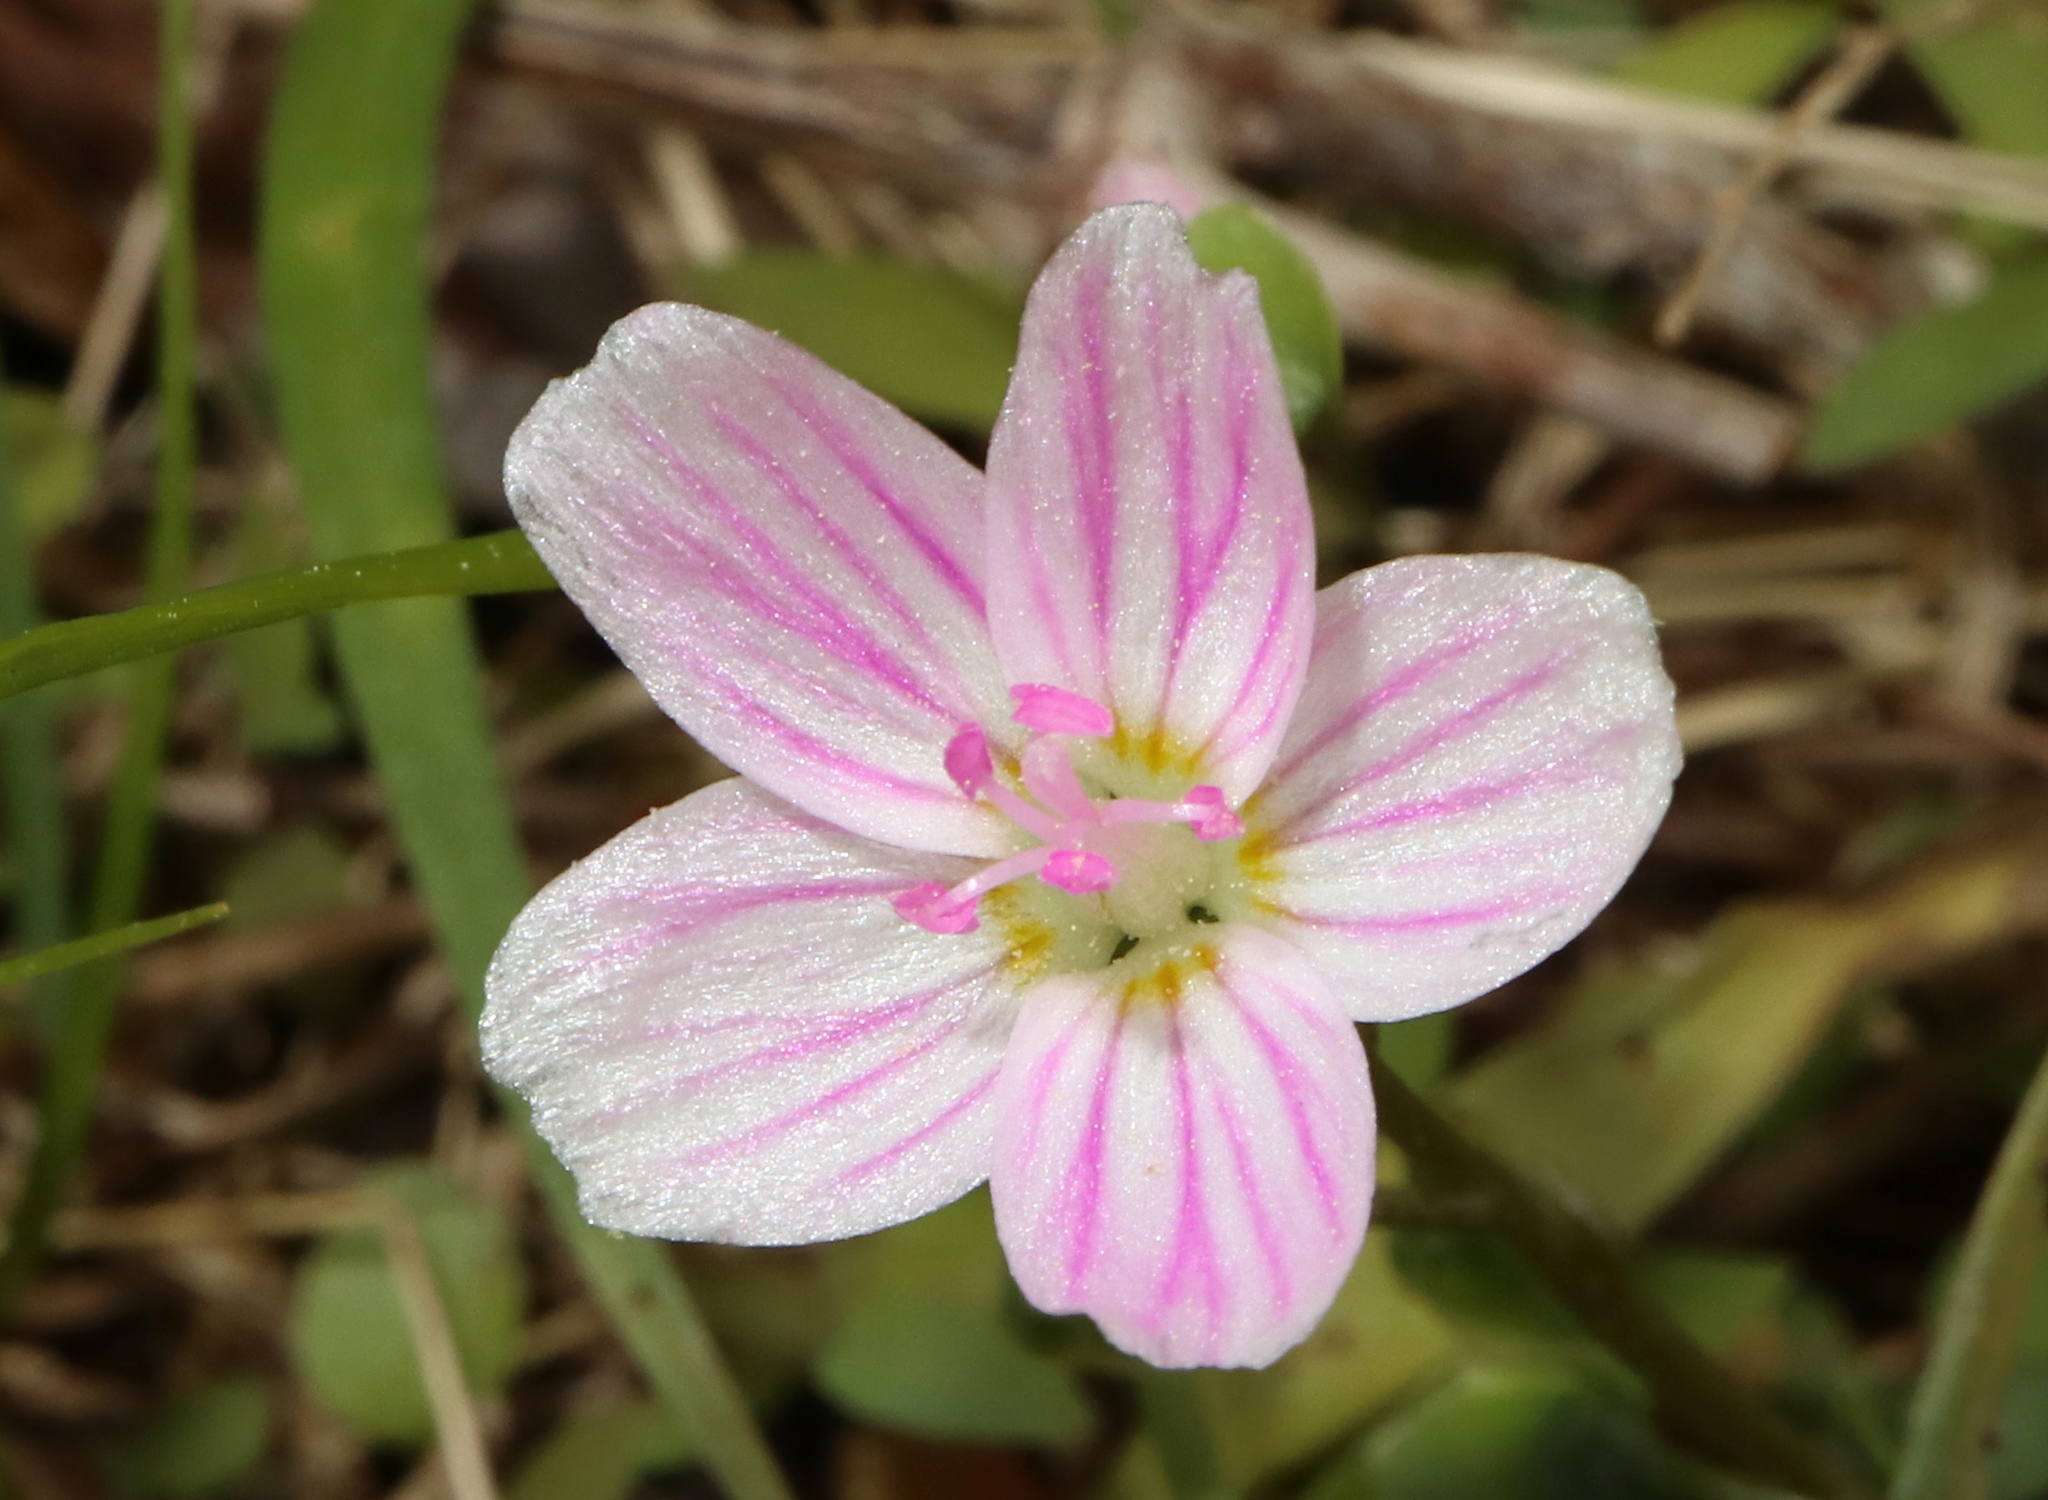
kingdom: Plantae
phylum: Tracheophyta
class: Magnoliopsida
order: Caryophyllales
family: Montiaceae
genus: Claytonia
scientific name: Claytonia virginica
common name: Virginia springbeauty
